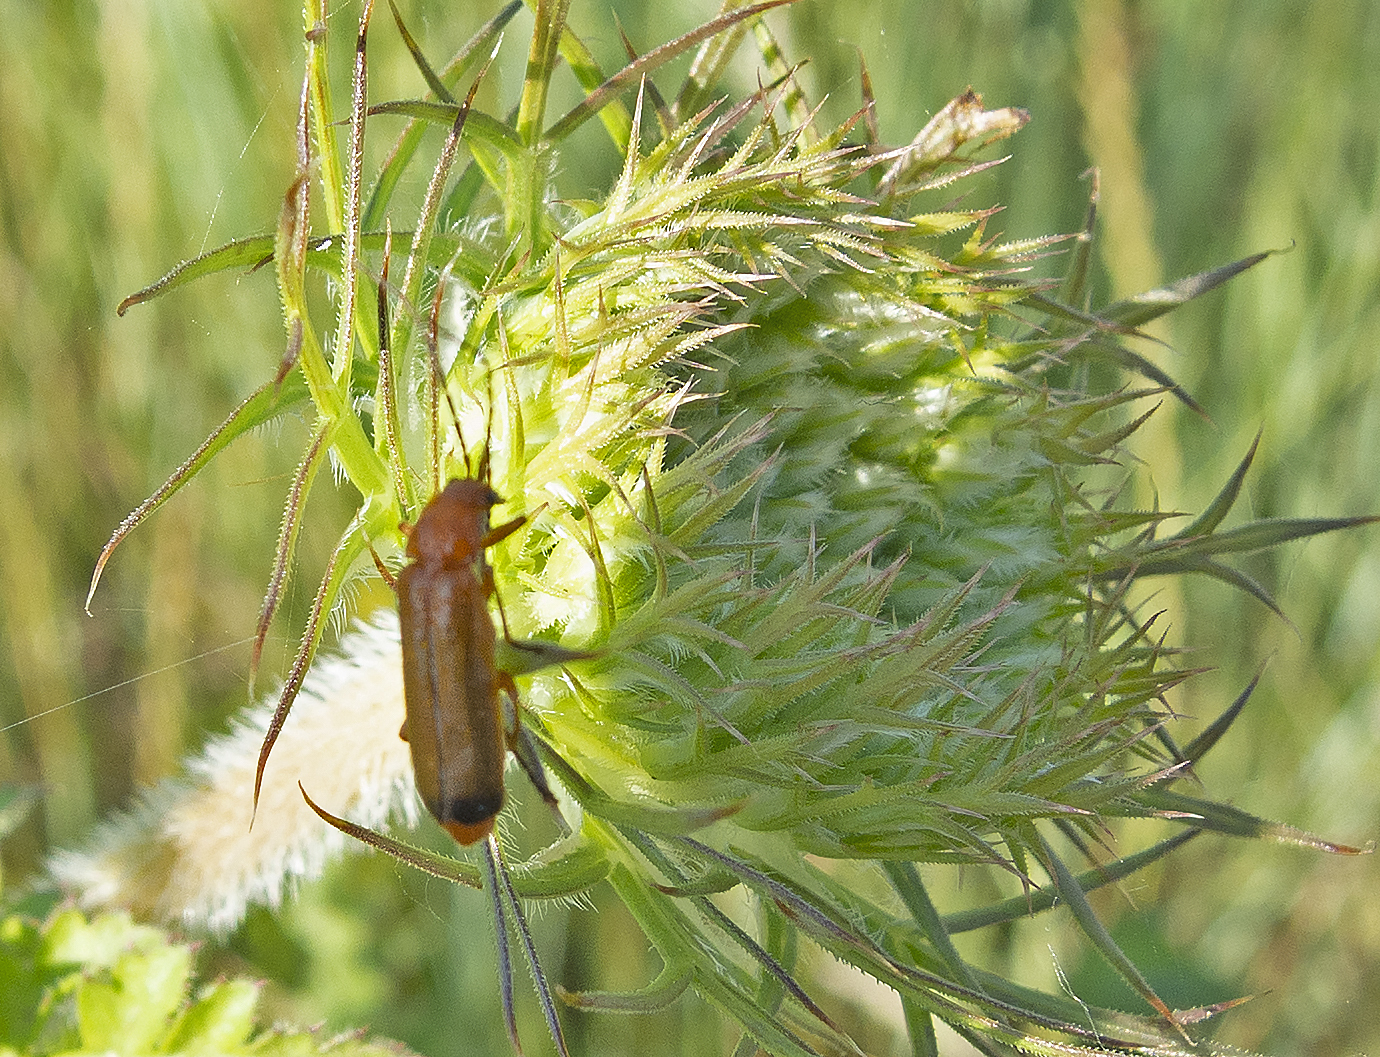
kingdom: Animalia
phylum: Arthropoda
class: Insecta
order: Coleoptera
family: Cantharidae
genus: Rhagonycha
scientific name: Rhagonycha fulva
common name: Common red soldier beetle
